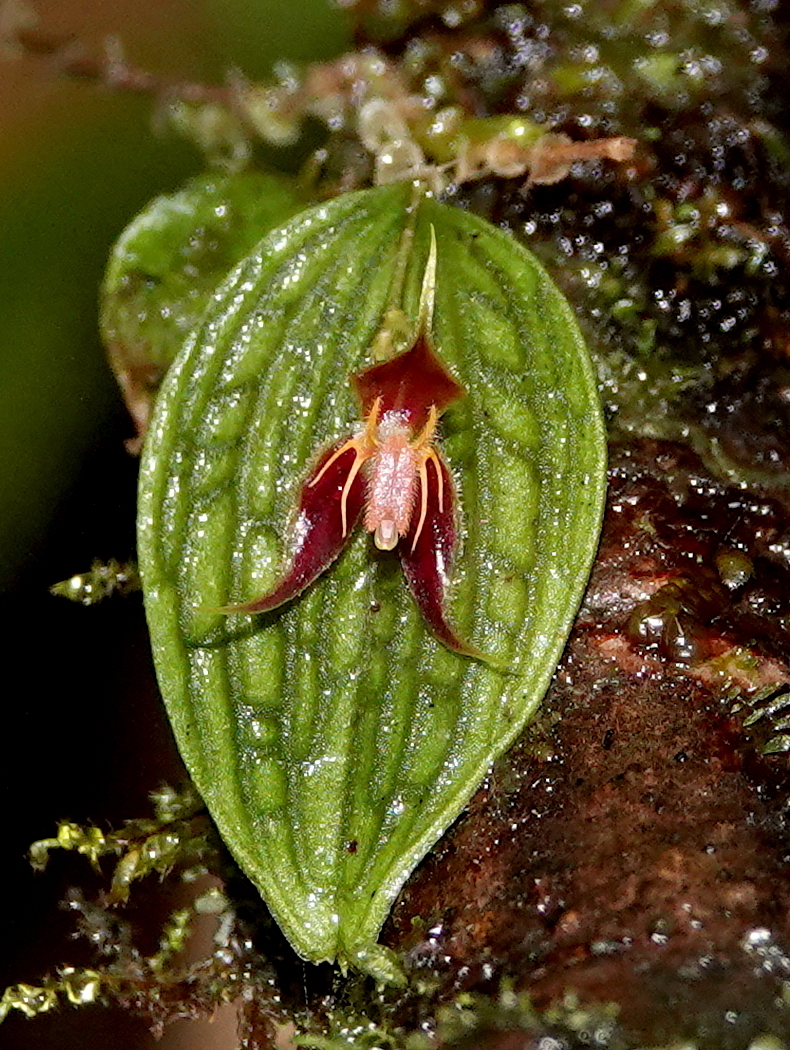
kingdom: Plantae
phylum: Tracheophyta
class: Liliopsida
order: Asparagales
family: Orchidaceae
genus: Lepanthes
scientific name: Lepanthes hexapus
